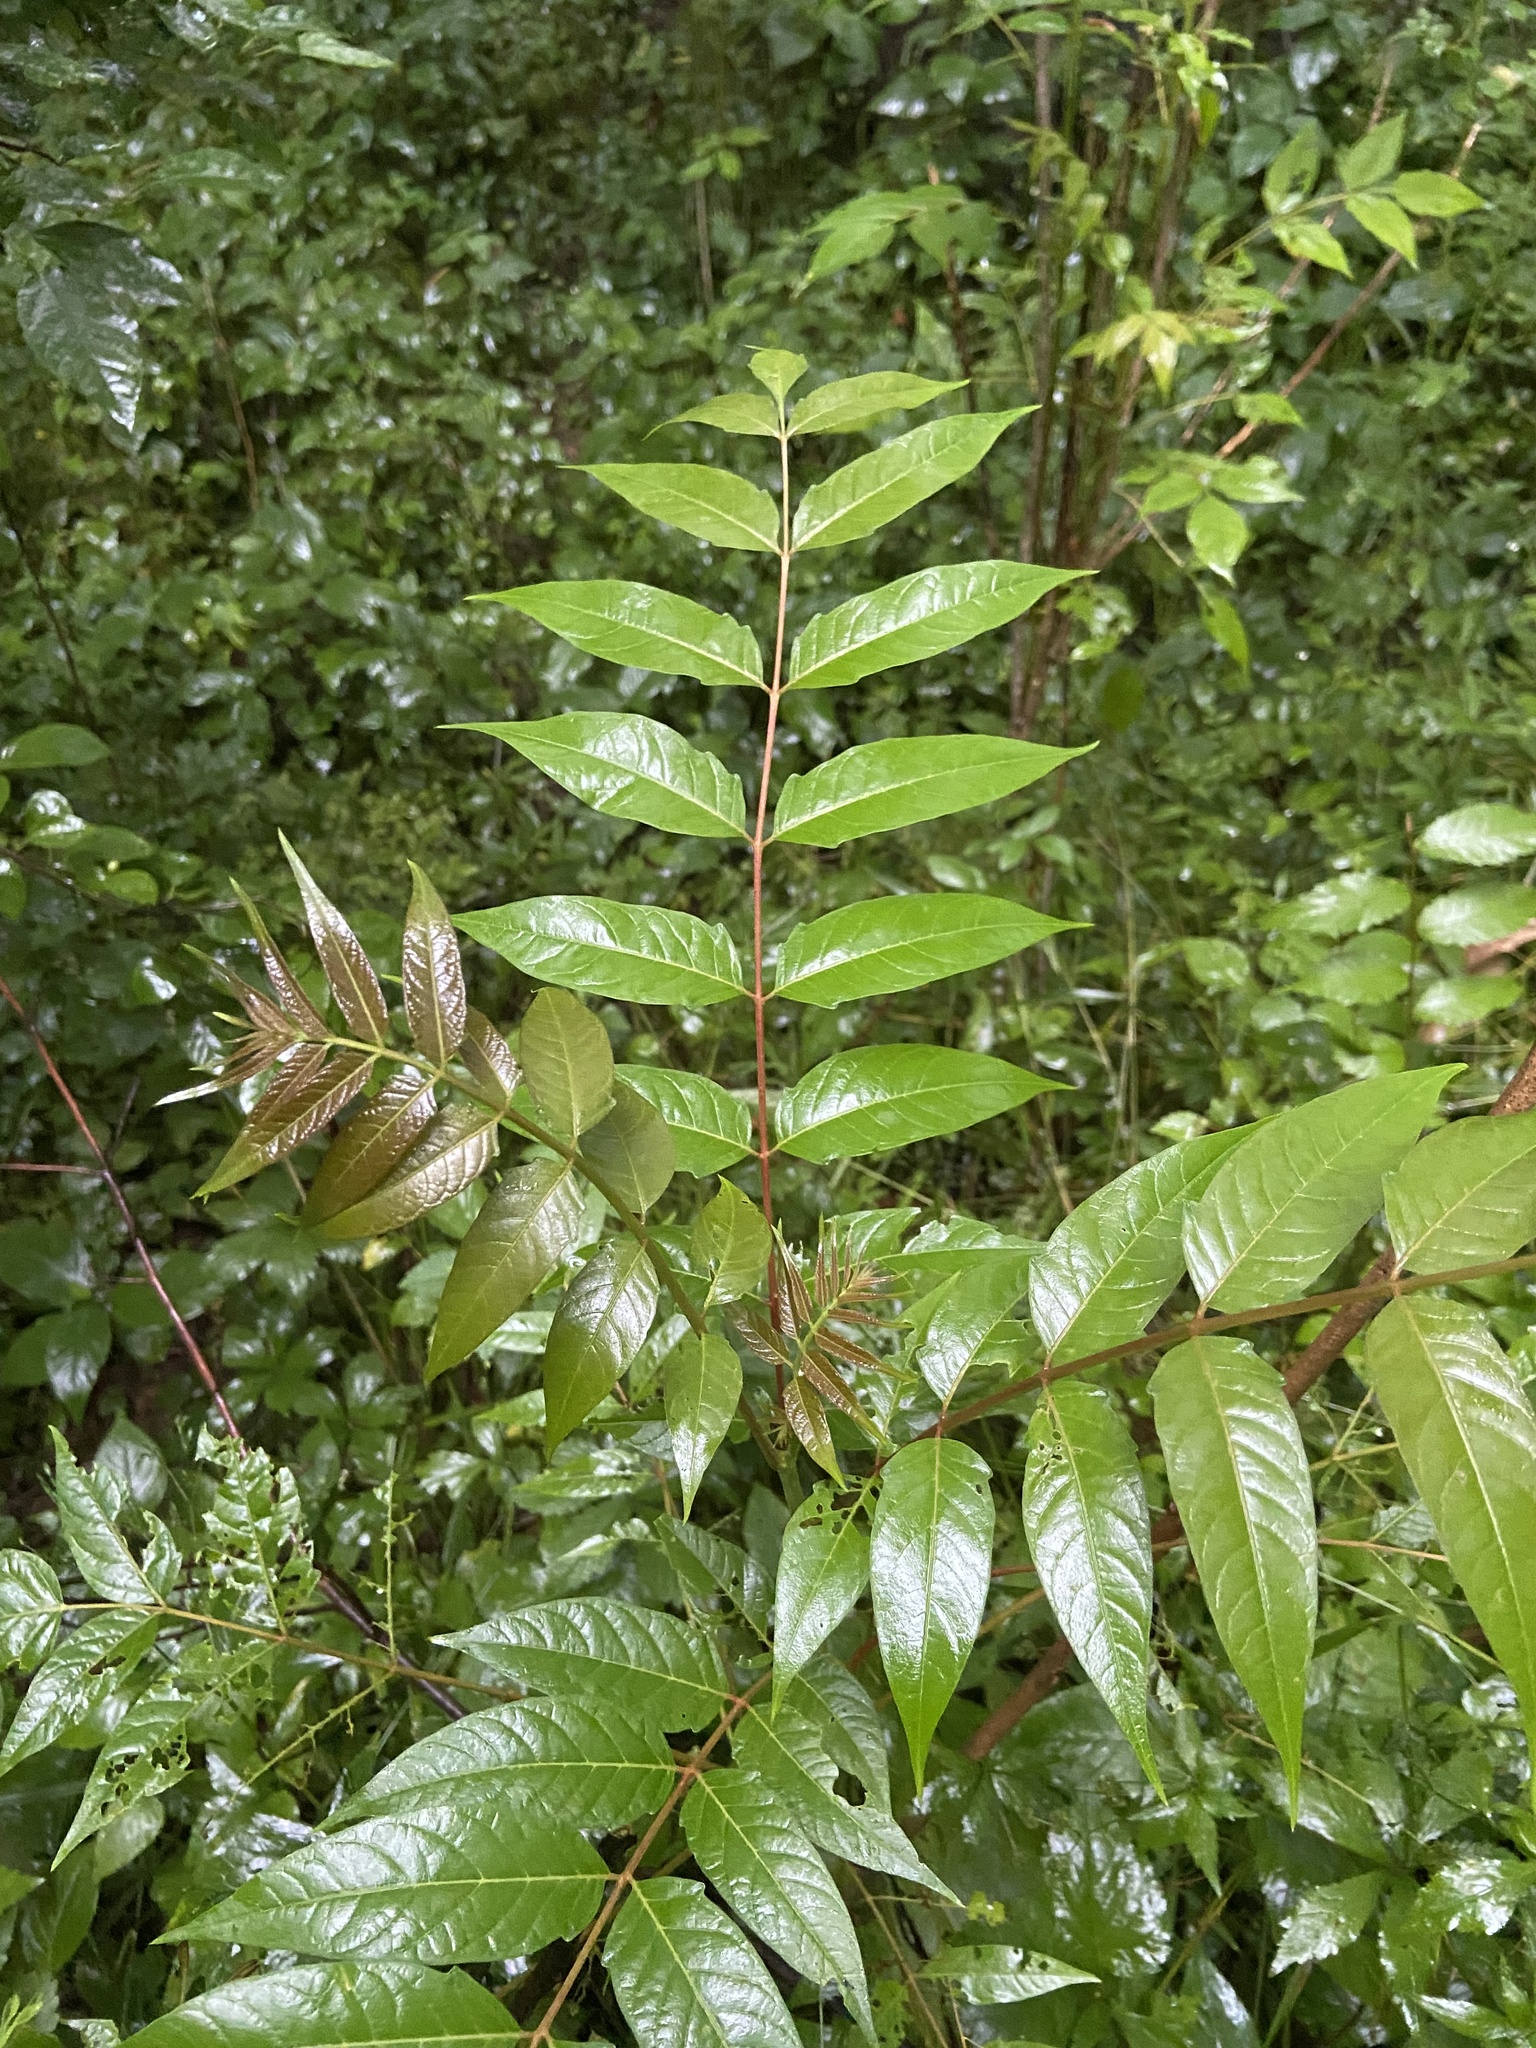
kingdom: Plantae
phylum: Tracheophyta
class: Magnoliopsida
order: Sapindales
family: Simaroubaceae
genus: Ailanthus
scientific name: Ailanthus altissima
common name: Tree-of-heaven
